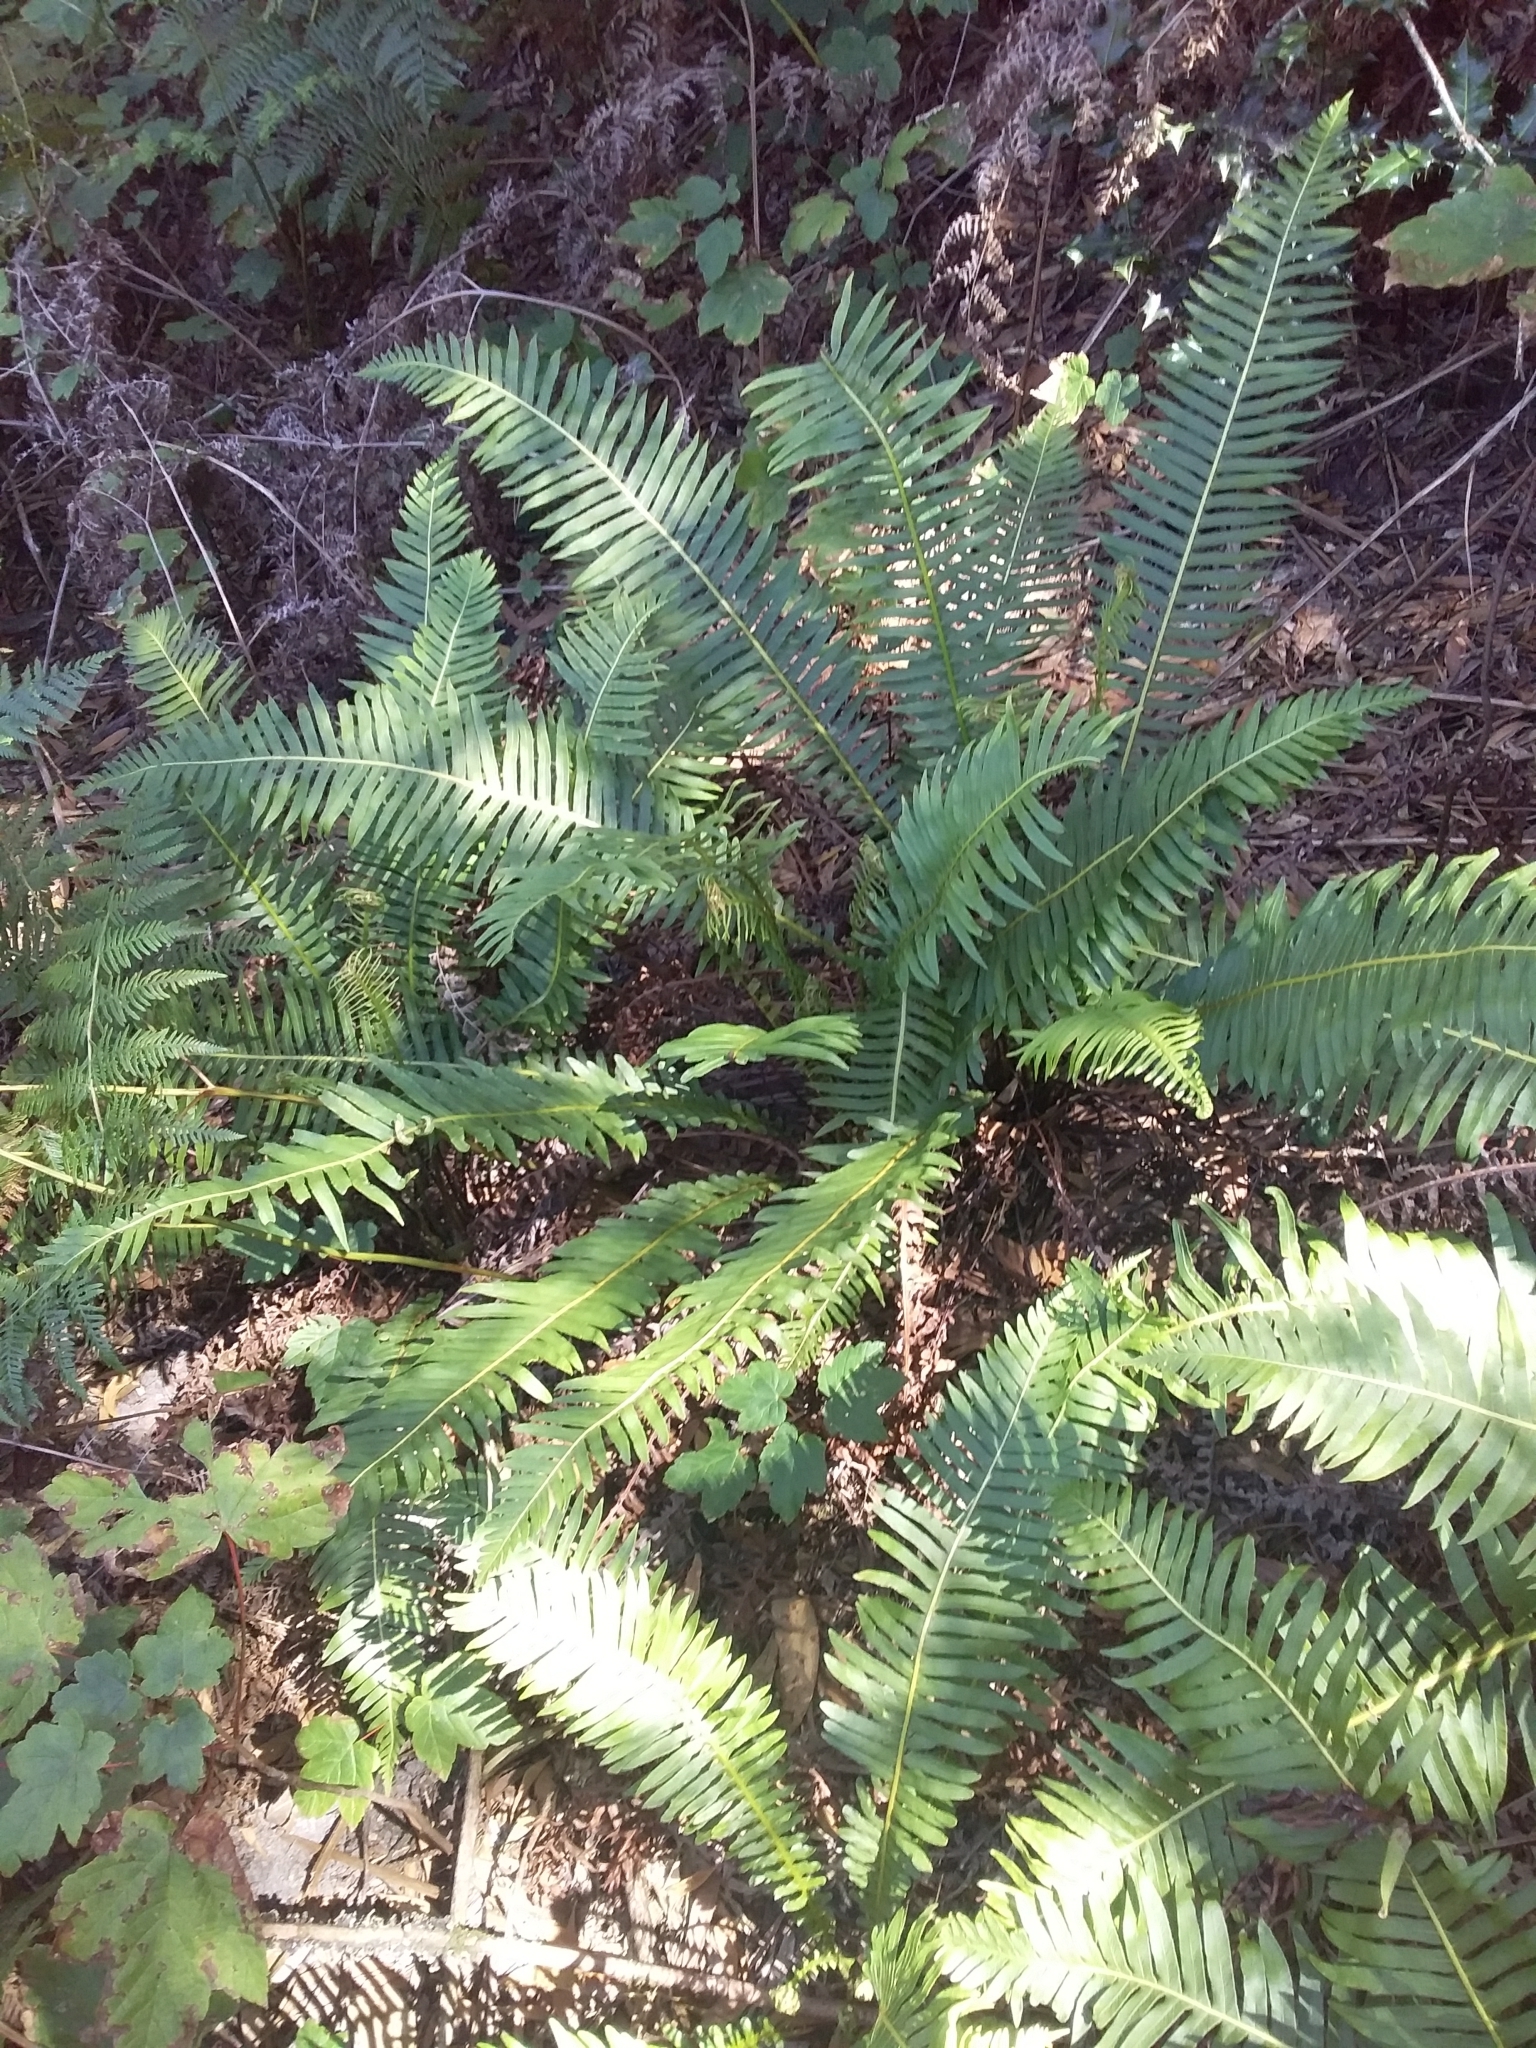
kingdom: Plantae
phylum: Tracheophyta
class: Polypodiopsida
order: Polypodiales
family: Blechnaceae
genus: Lomaria
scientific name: Lomaria nuda
